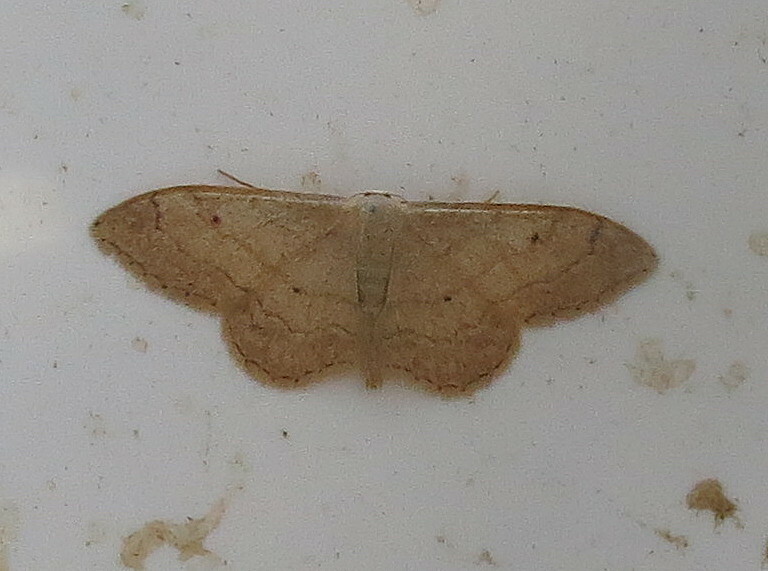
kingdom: Animalia
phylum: Arthropoda
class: Insecta
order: Lepidoptera
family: Geometridae
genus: Idaea
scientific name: Idaea aversata
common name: Riband wave
